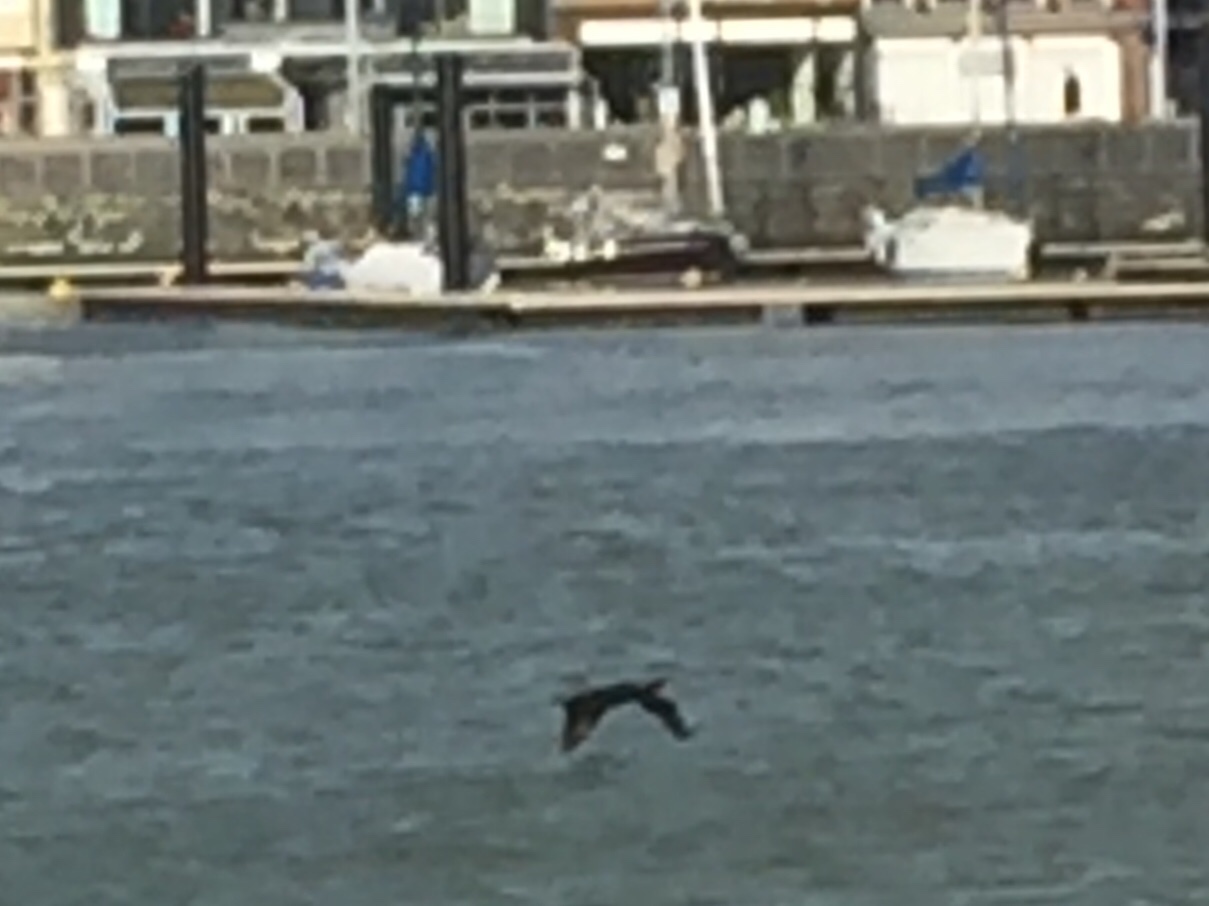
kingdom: Animalia
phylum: Chordata
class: Aves
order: Suliformes
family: Phalacrocoracidae
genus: Phalacrocorax
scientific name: Phalacrocorax carbo
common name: Great cormorant
